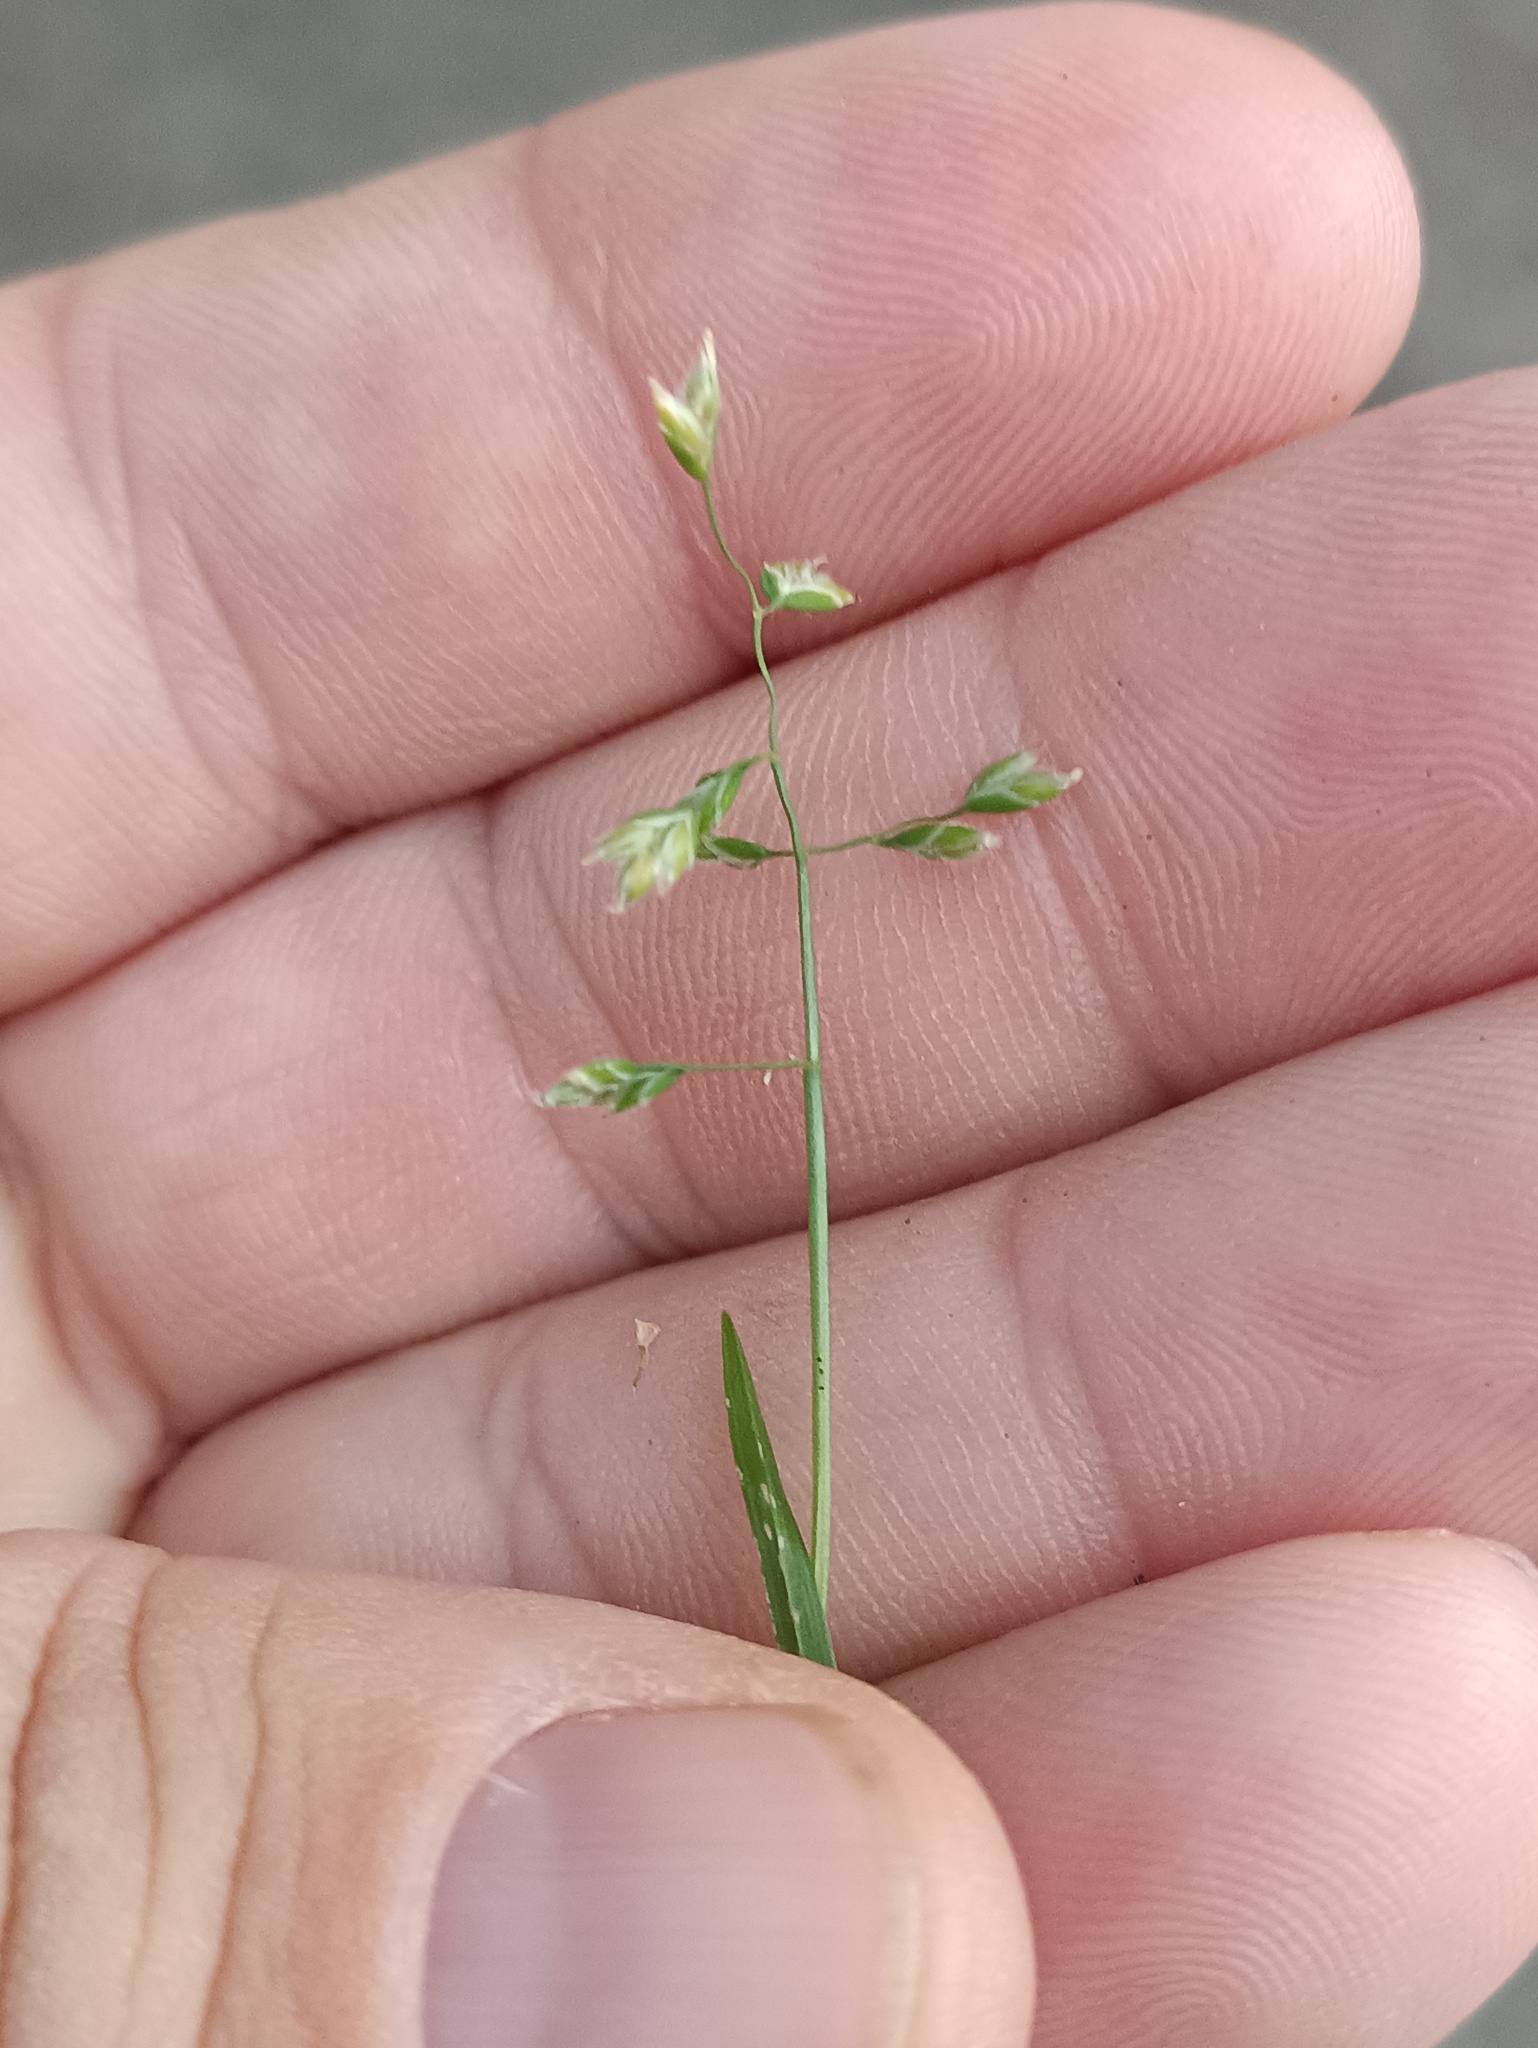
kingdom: Plantae
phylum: Tracheophyta
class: Liliopsida
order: Poales
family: Poaceae
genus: Poa
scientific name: Poa annua
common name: Annual bluegrass
